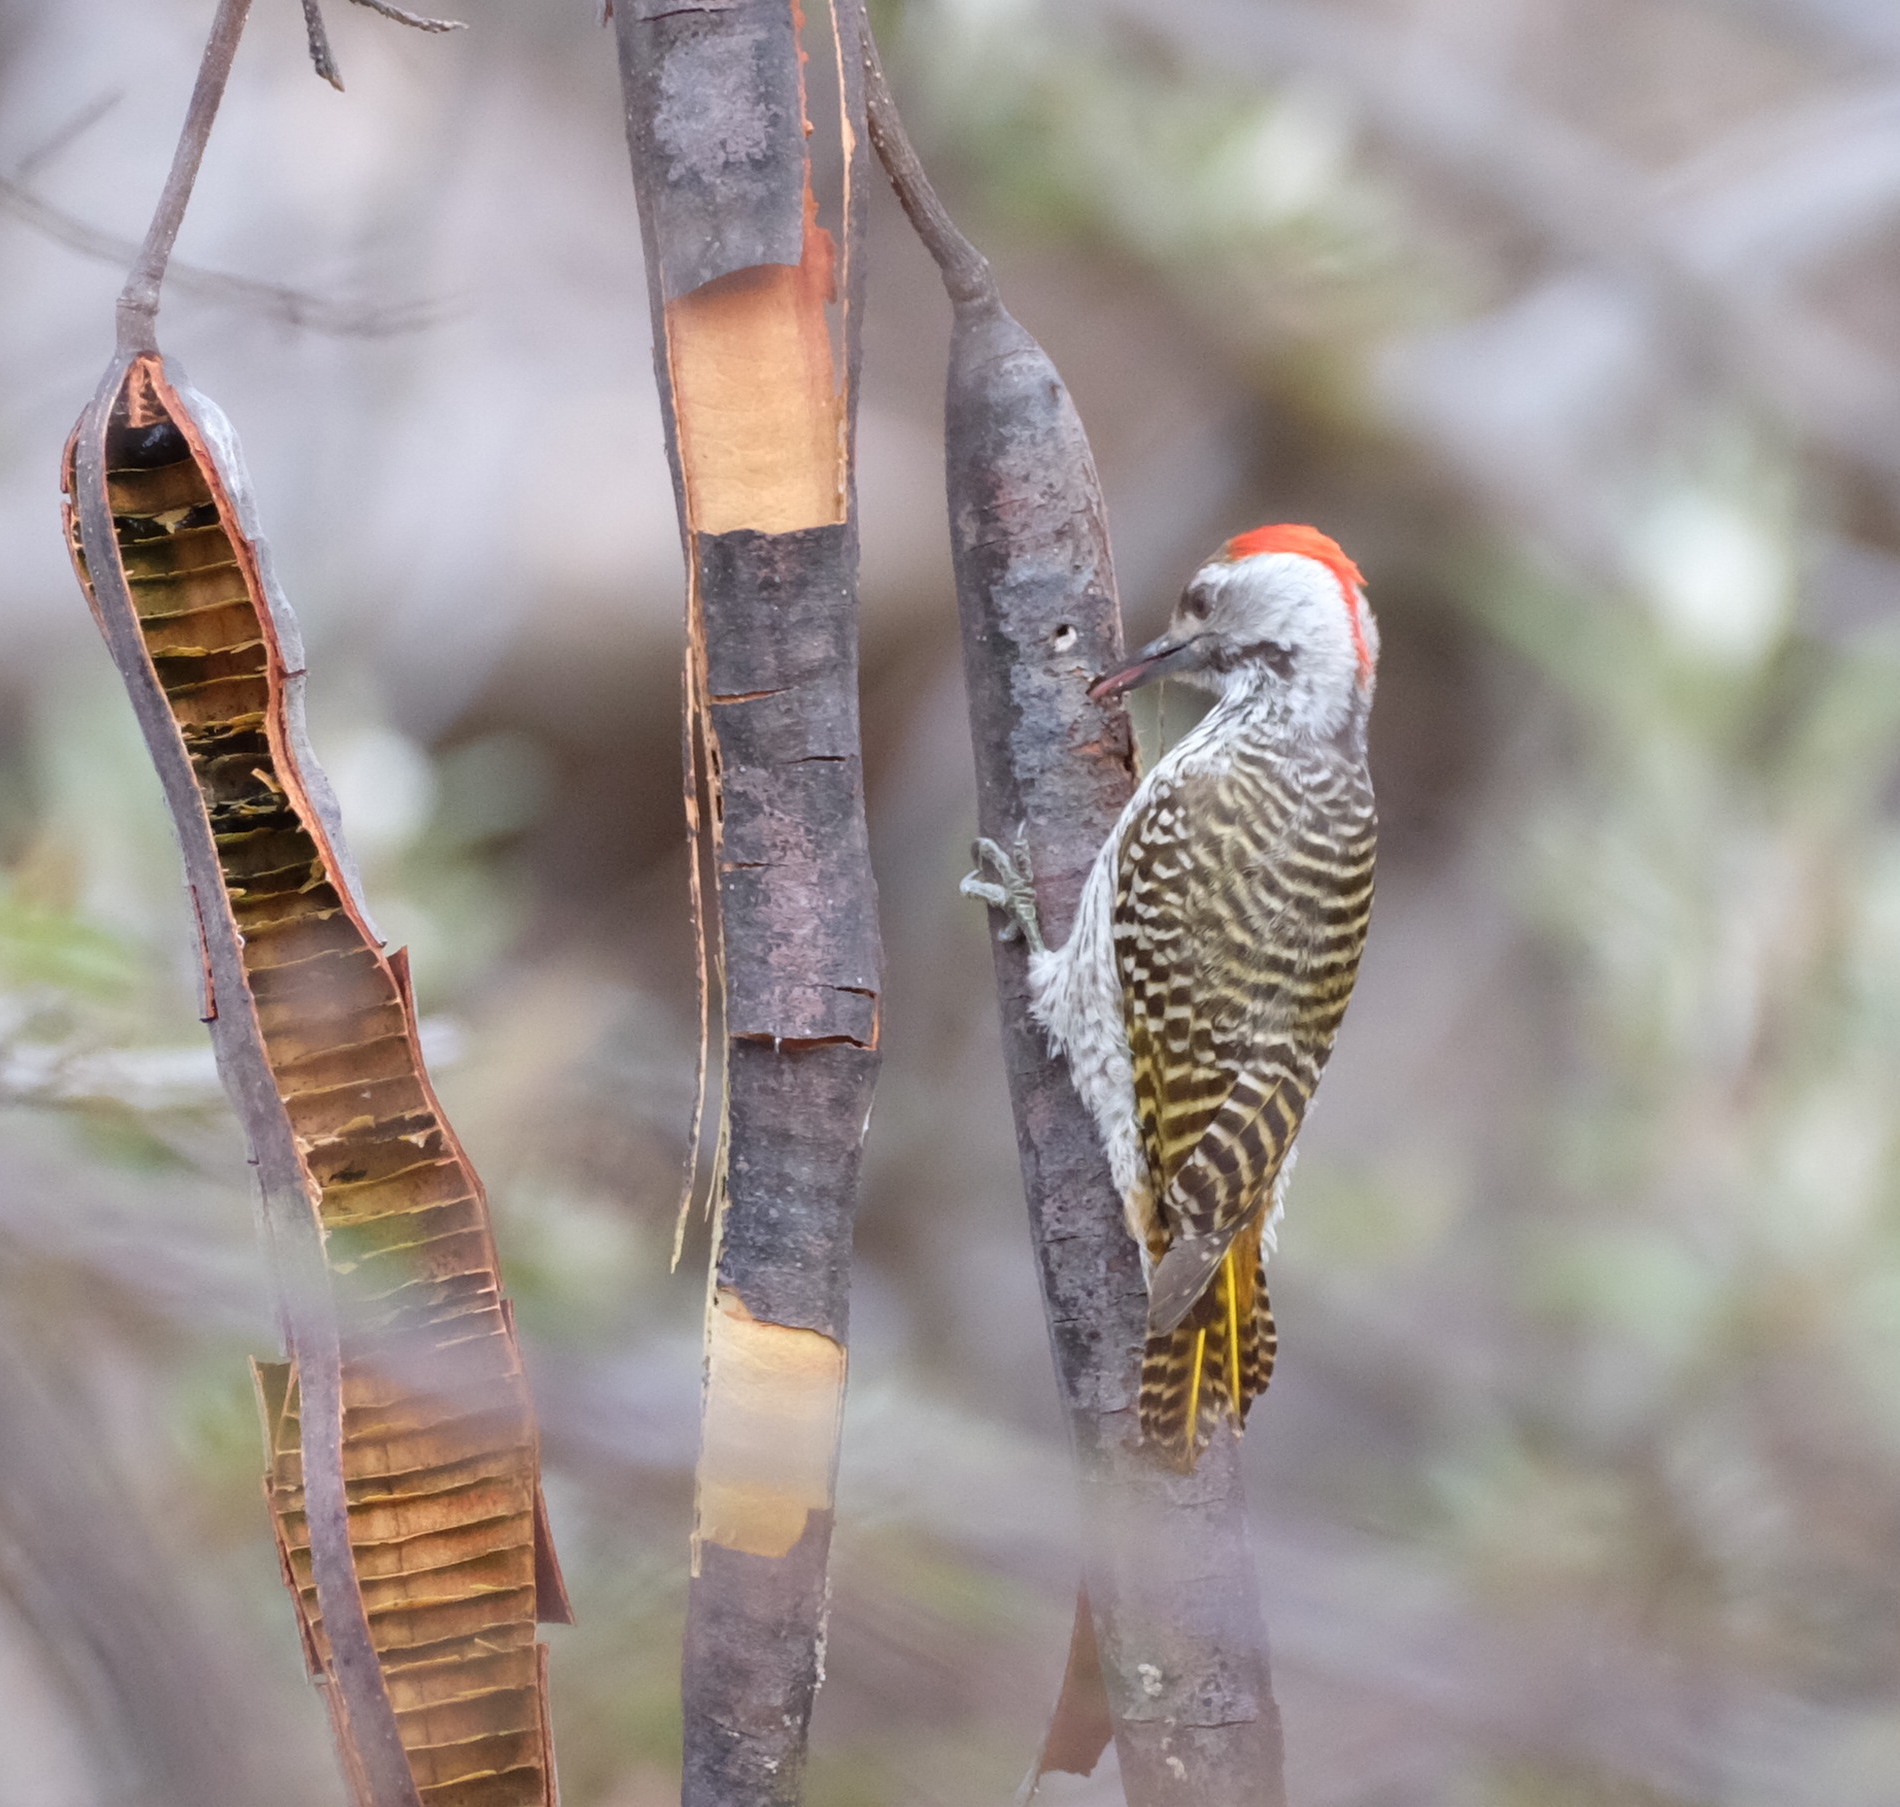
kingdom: Animalia
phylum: Chordata
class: Aves
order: Piciformes
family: Picidae
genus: Dendropicos
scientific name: Dendropicos fuscescens
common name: Cardinal woodpecker
